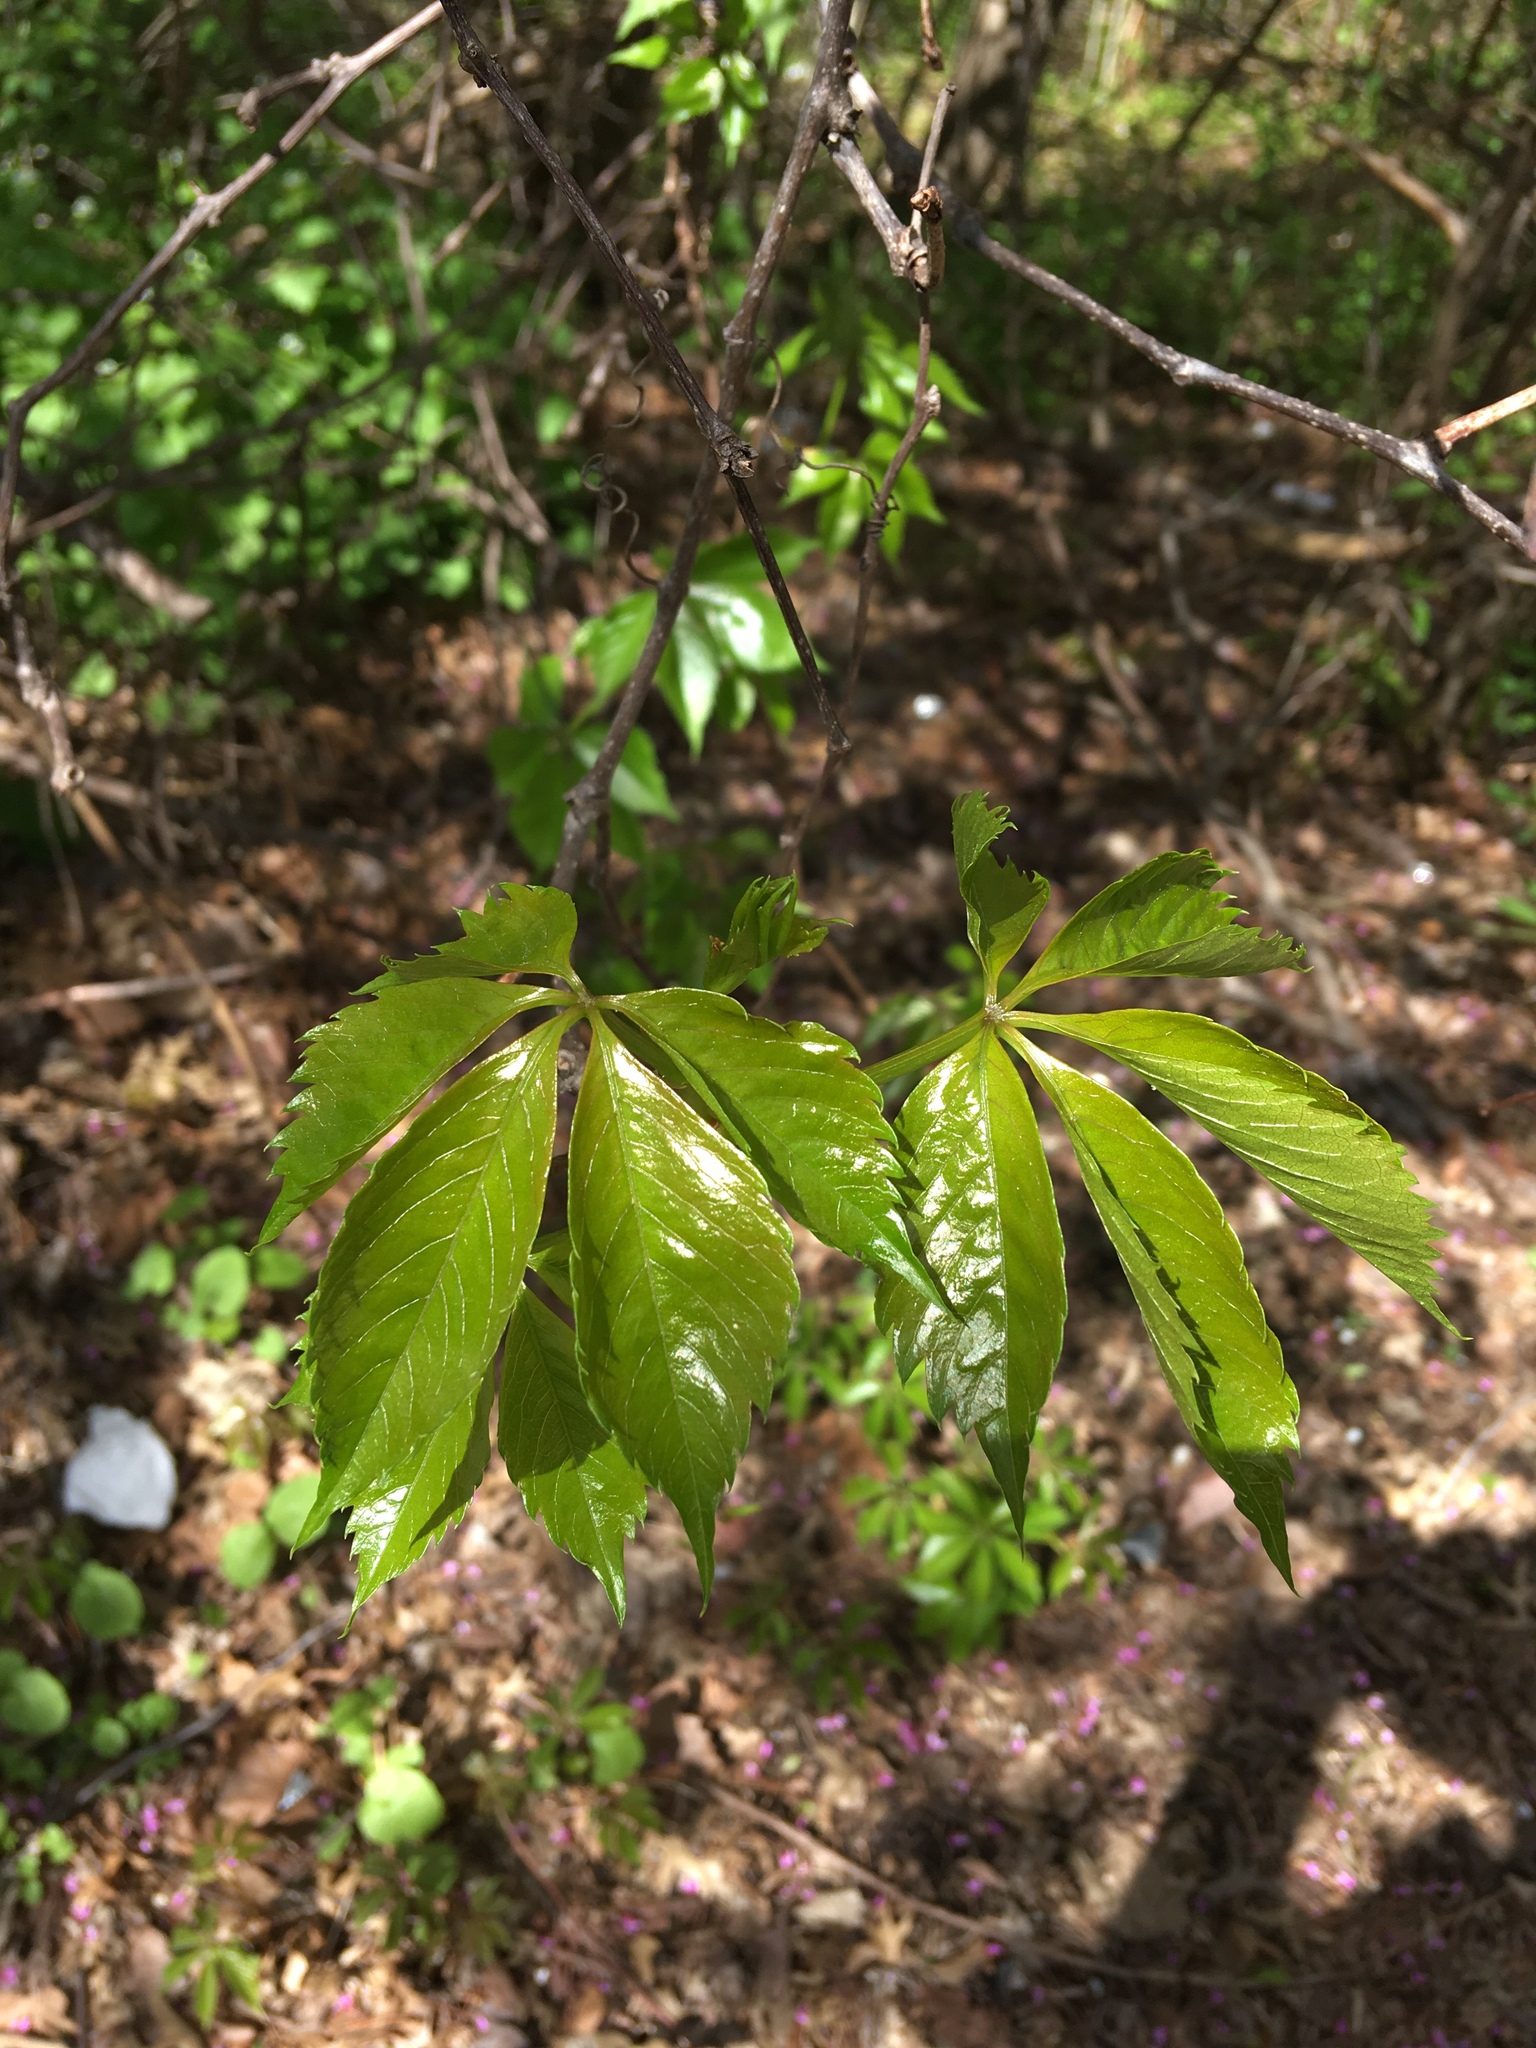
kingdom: Plantae
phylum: Tracheophyta
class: Magnoliopsida
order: Vitales
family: Vitaceae
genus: Parthenocissus
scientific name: Parthenocissus quinquefolia
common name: Virginia-creeper
